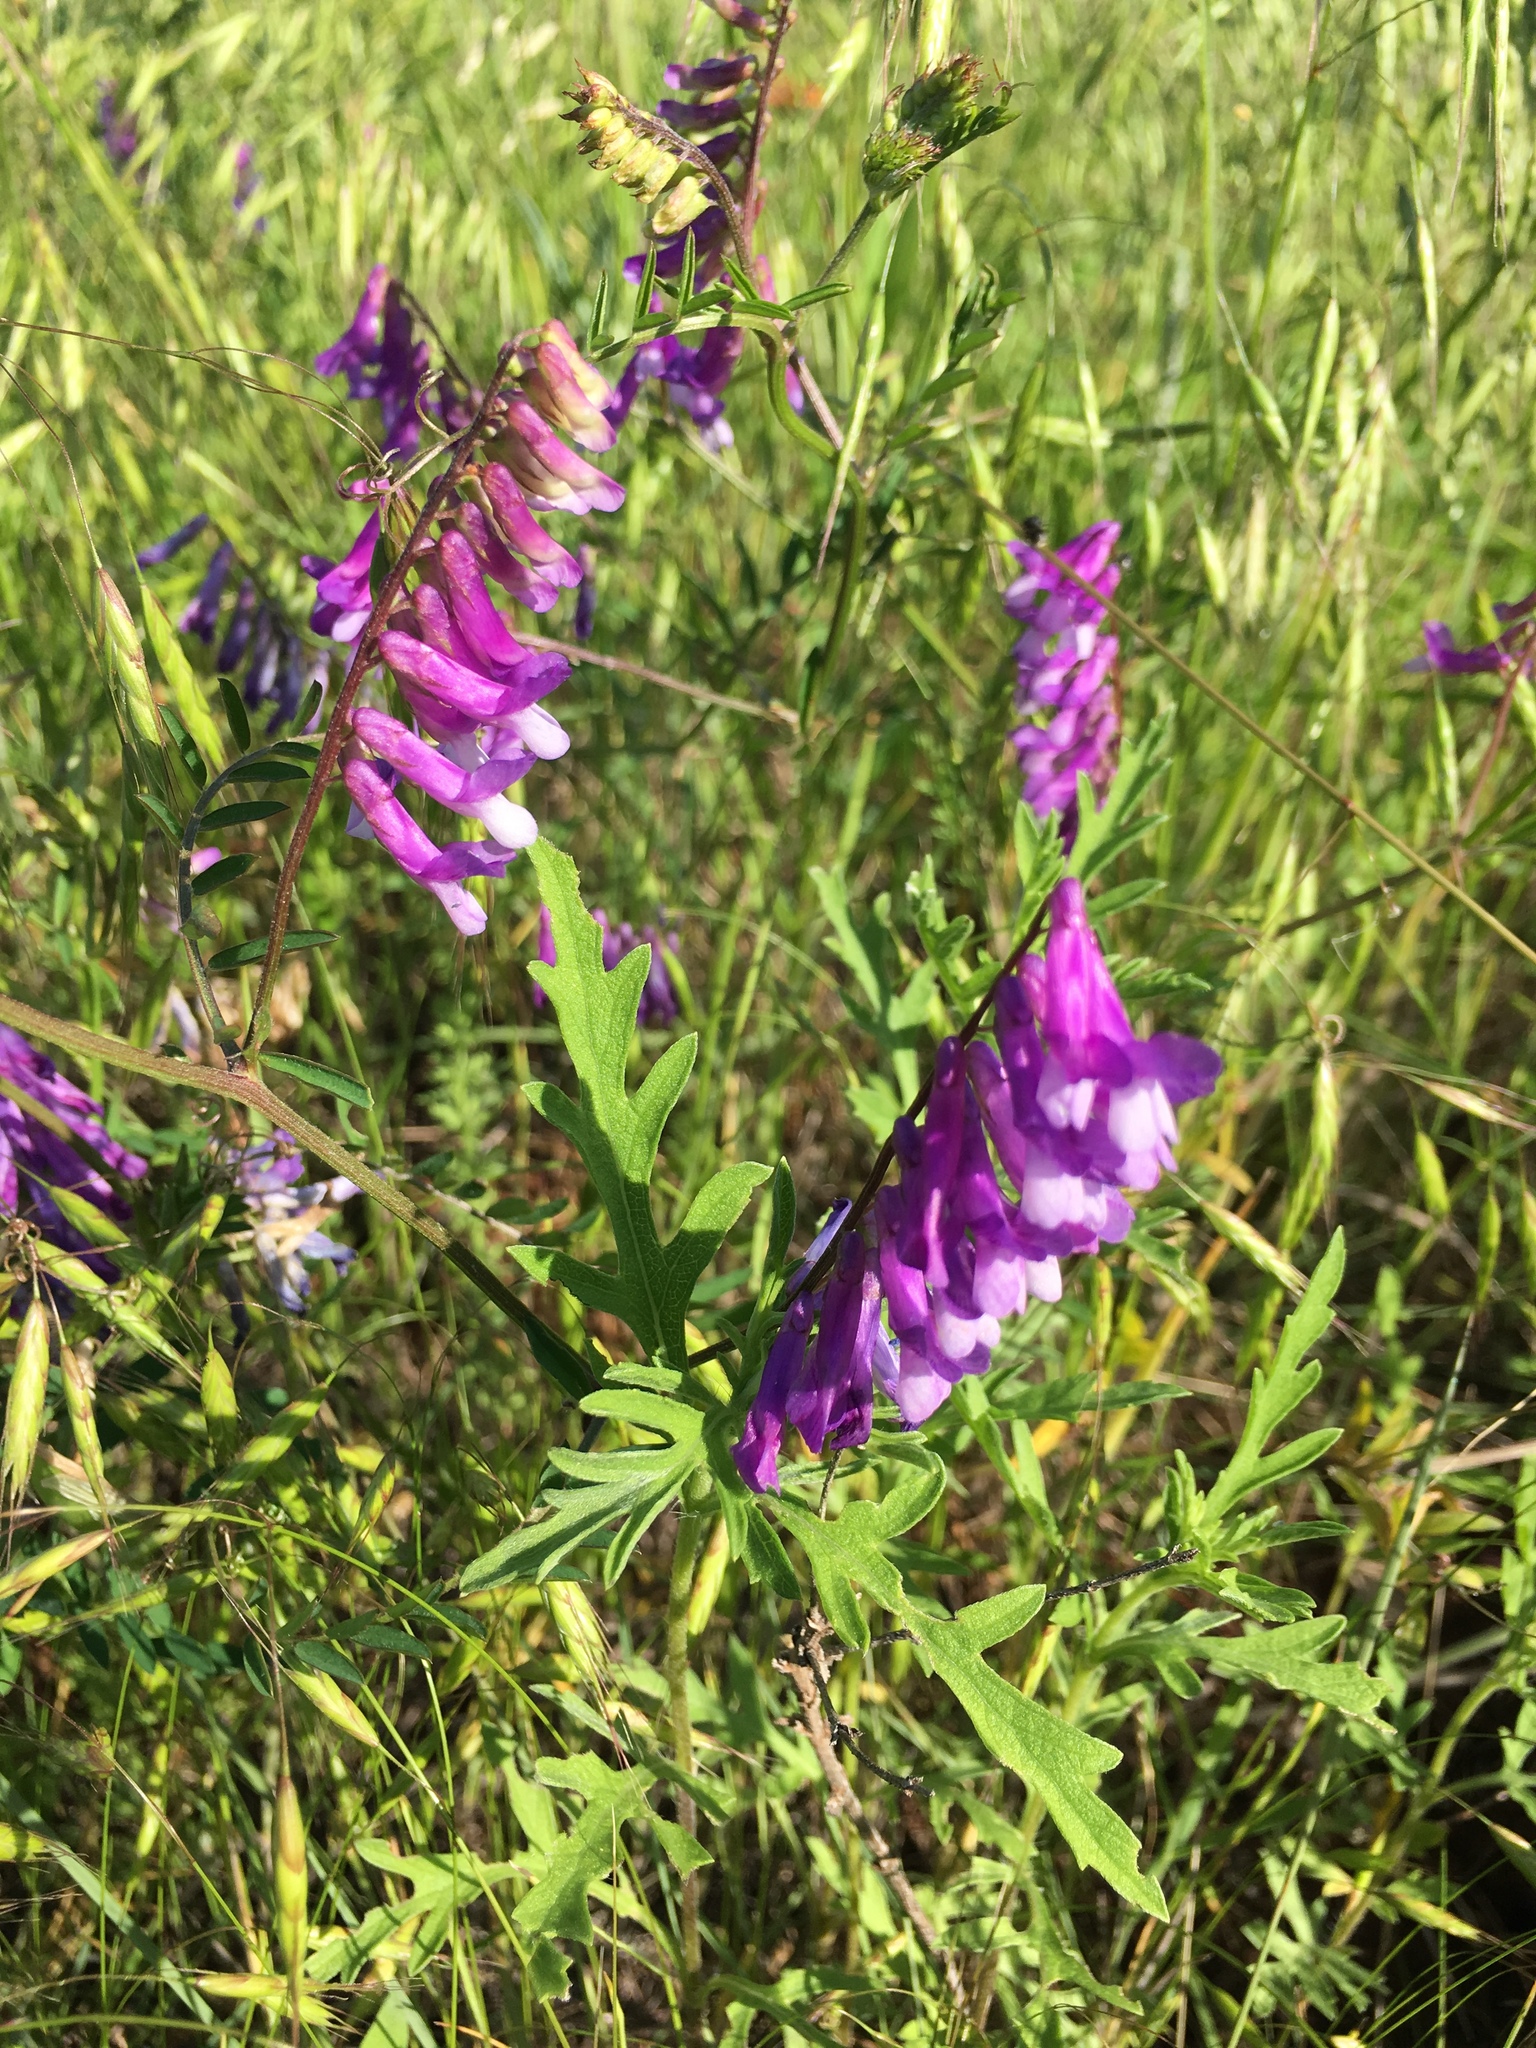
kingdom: Plantae
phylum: Tracheophyta
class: Magnoliopsida
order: Fabales
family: Fabaceae
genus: Vicia
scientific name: Vicia villosa
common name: Fodder vetch
